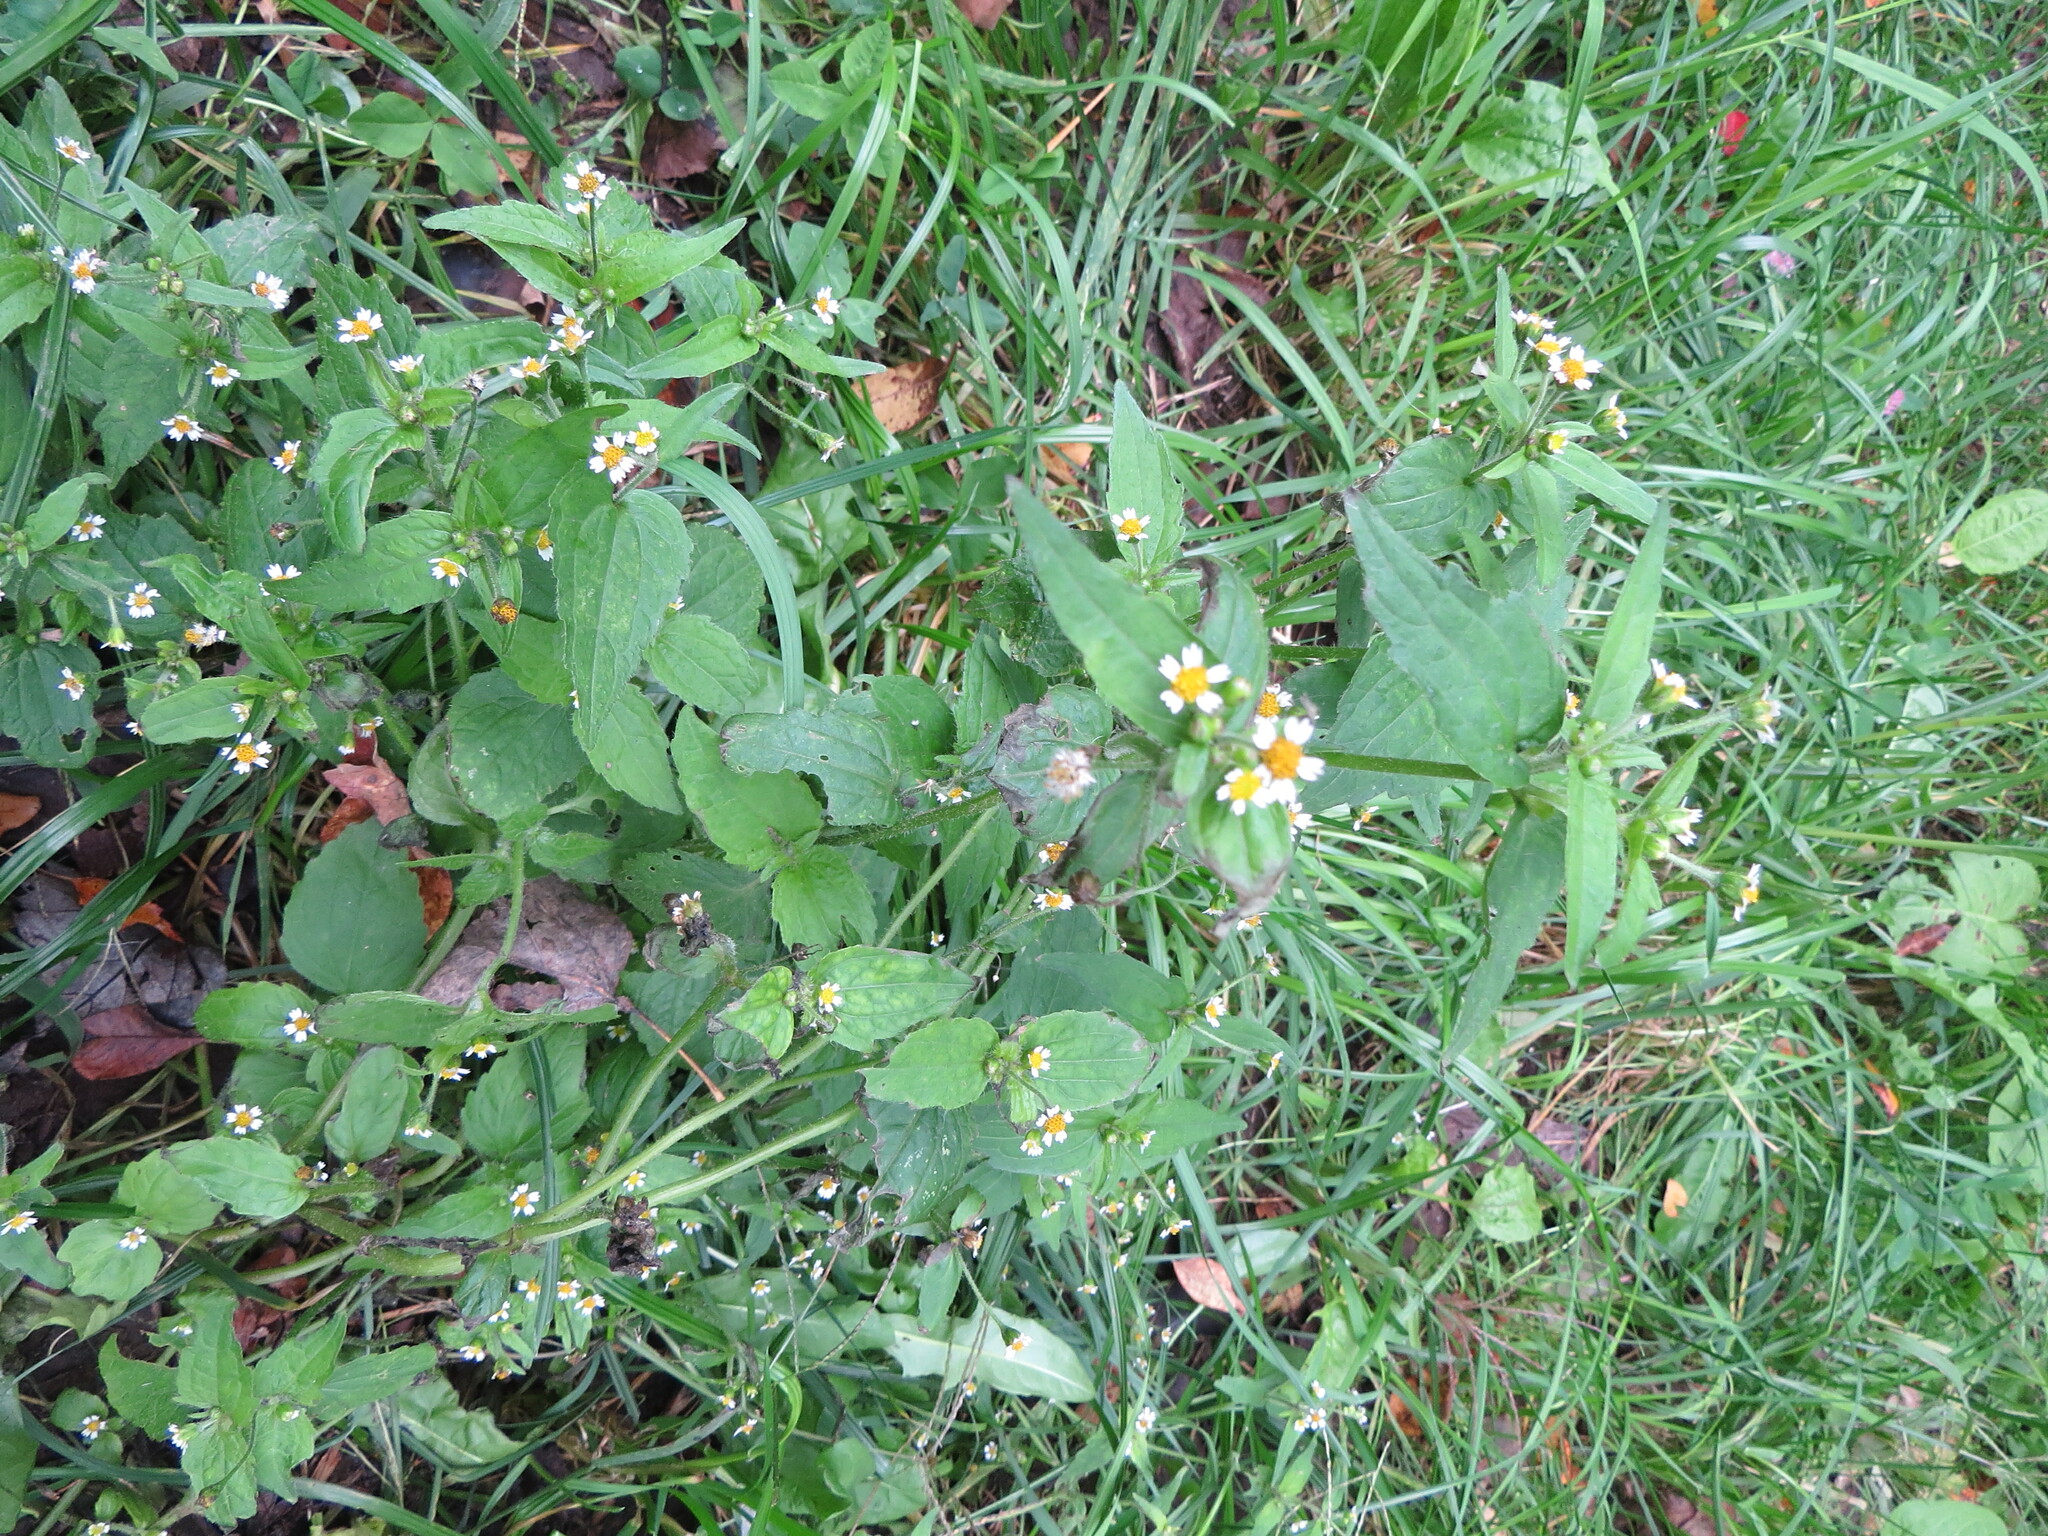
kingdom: Plantae
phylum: Tracheophyta
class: Magnoliopsida
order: Asterales
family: Asteraceae
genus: Galinsoga
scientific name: Galinsoga quadriradiata
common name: Shaggy soldier
